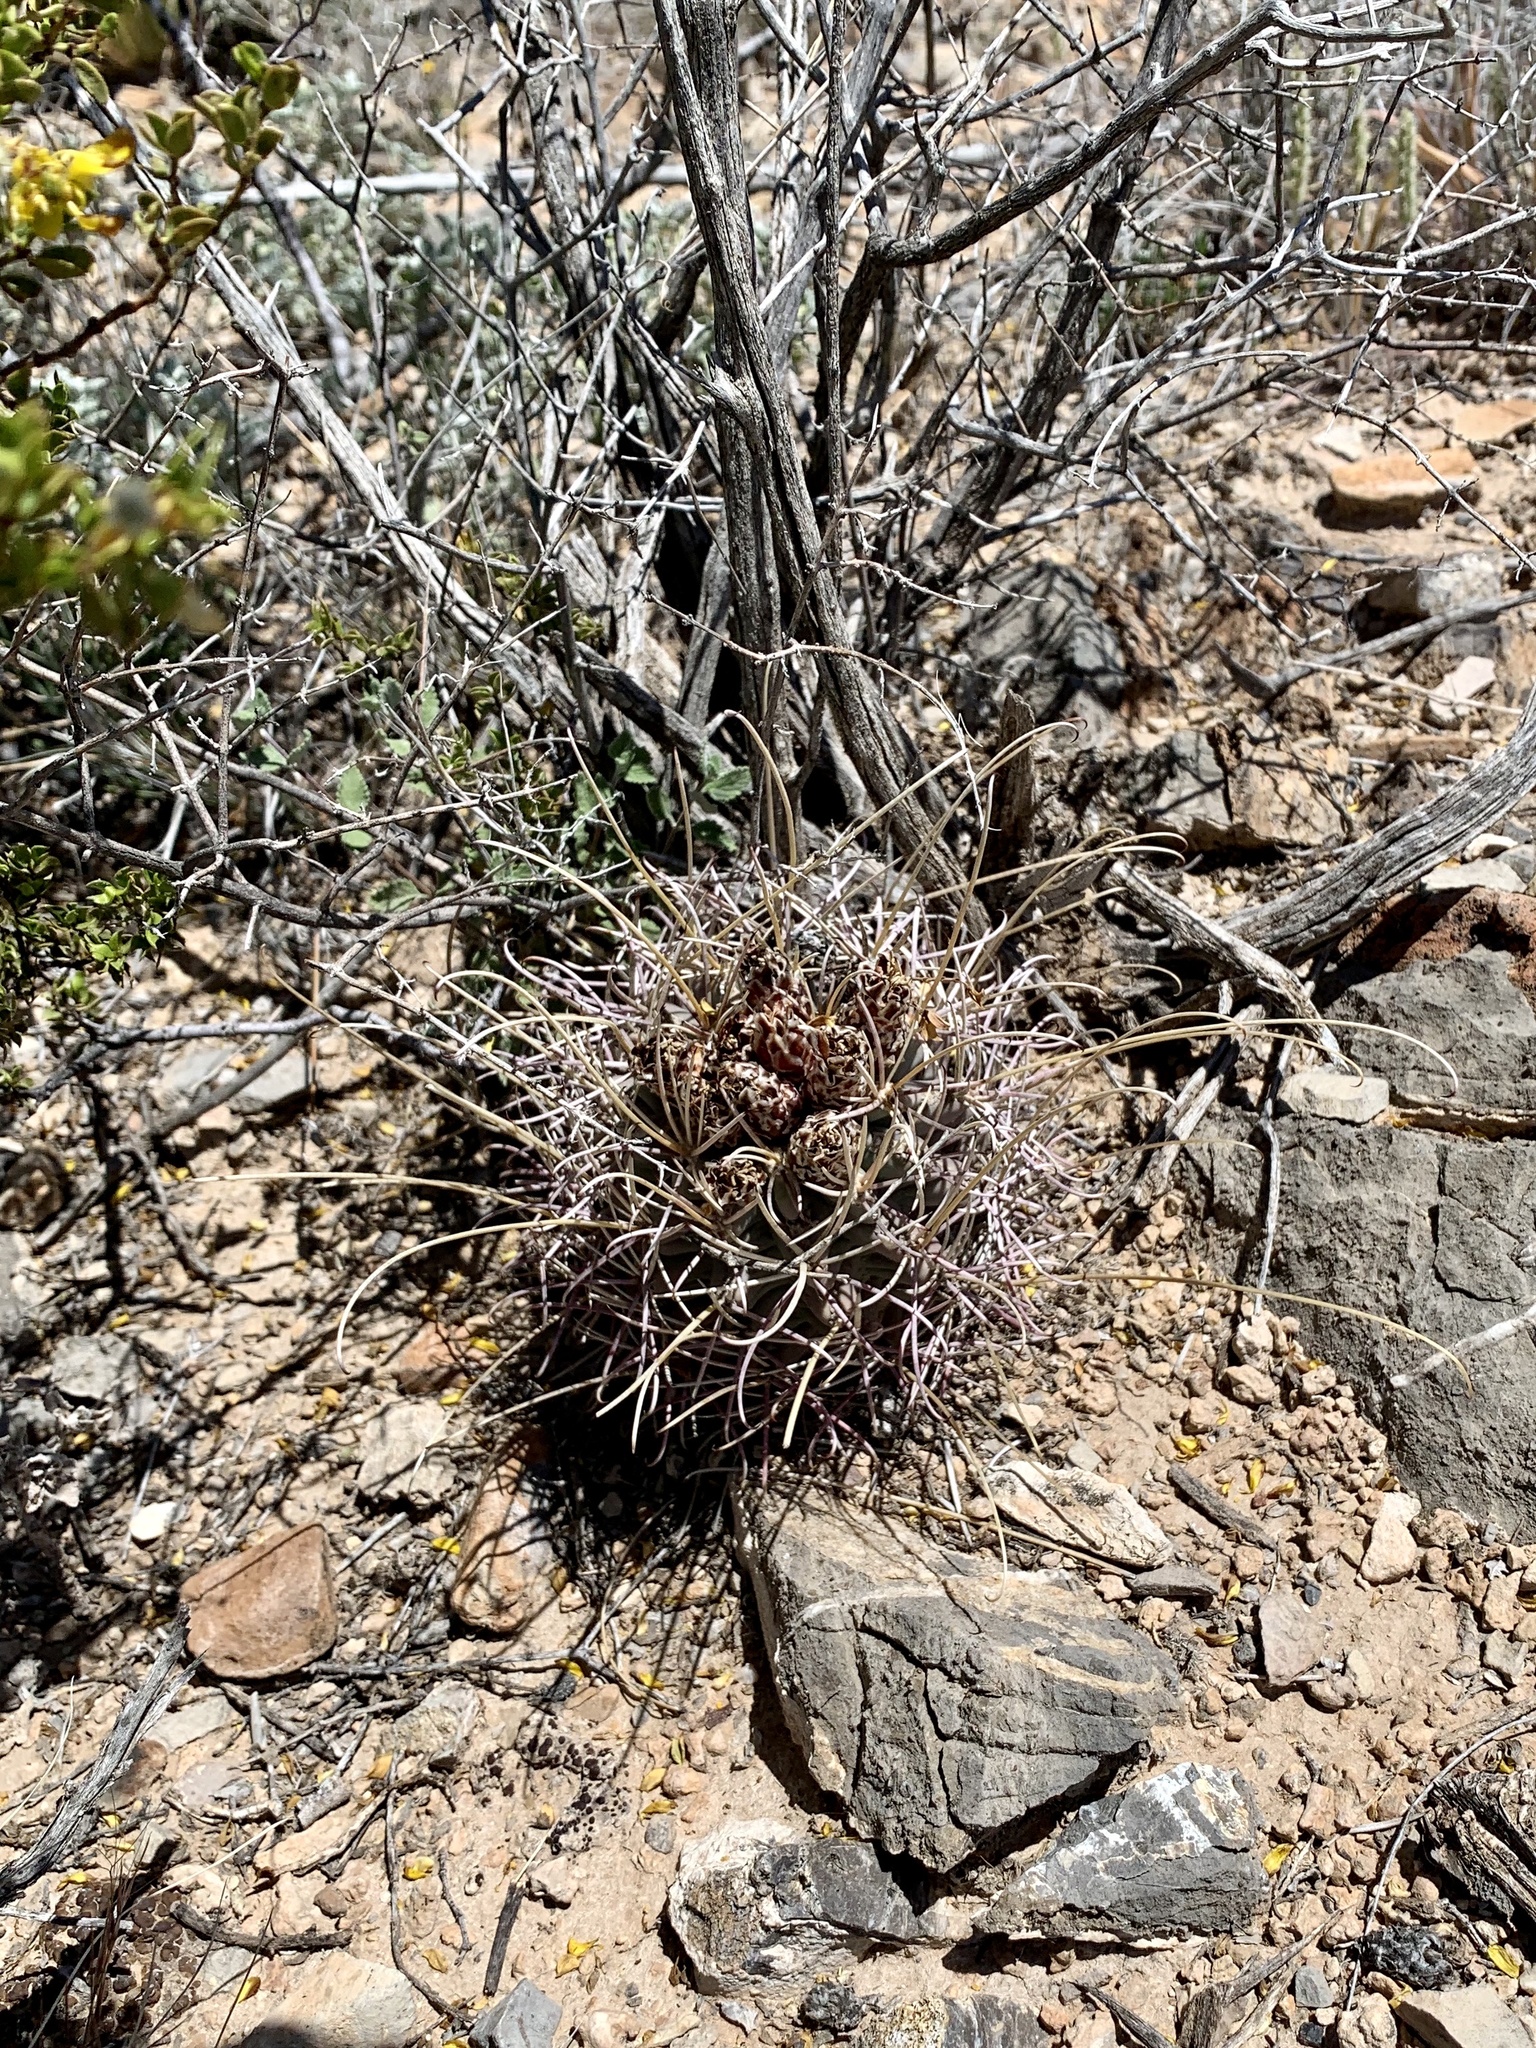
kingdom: Plantae
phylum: Tracheophyta
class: Magnoliopsida
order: Caryophyllales
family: Cactaceae
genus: Ferocactus
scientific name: Ferocactus uncinatus
